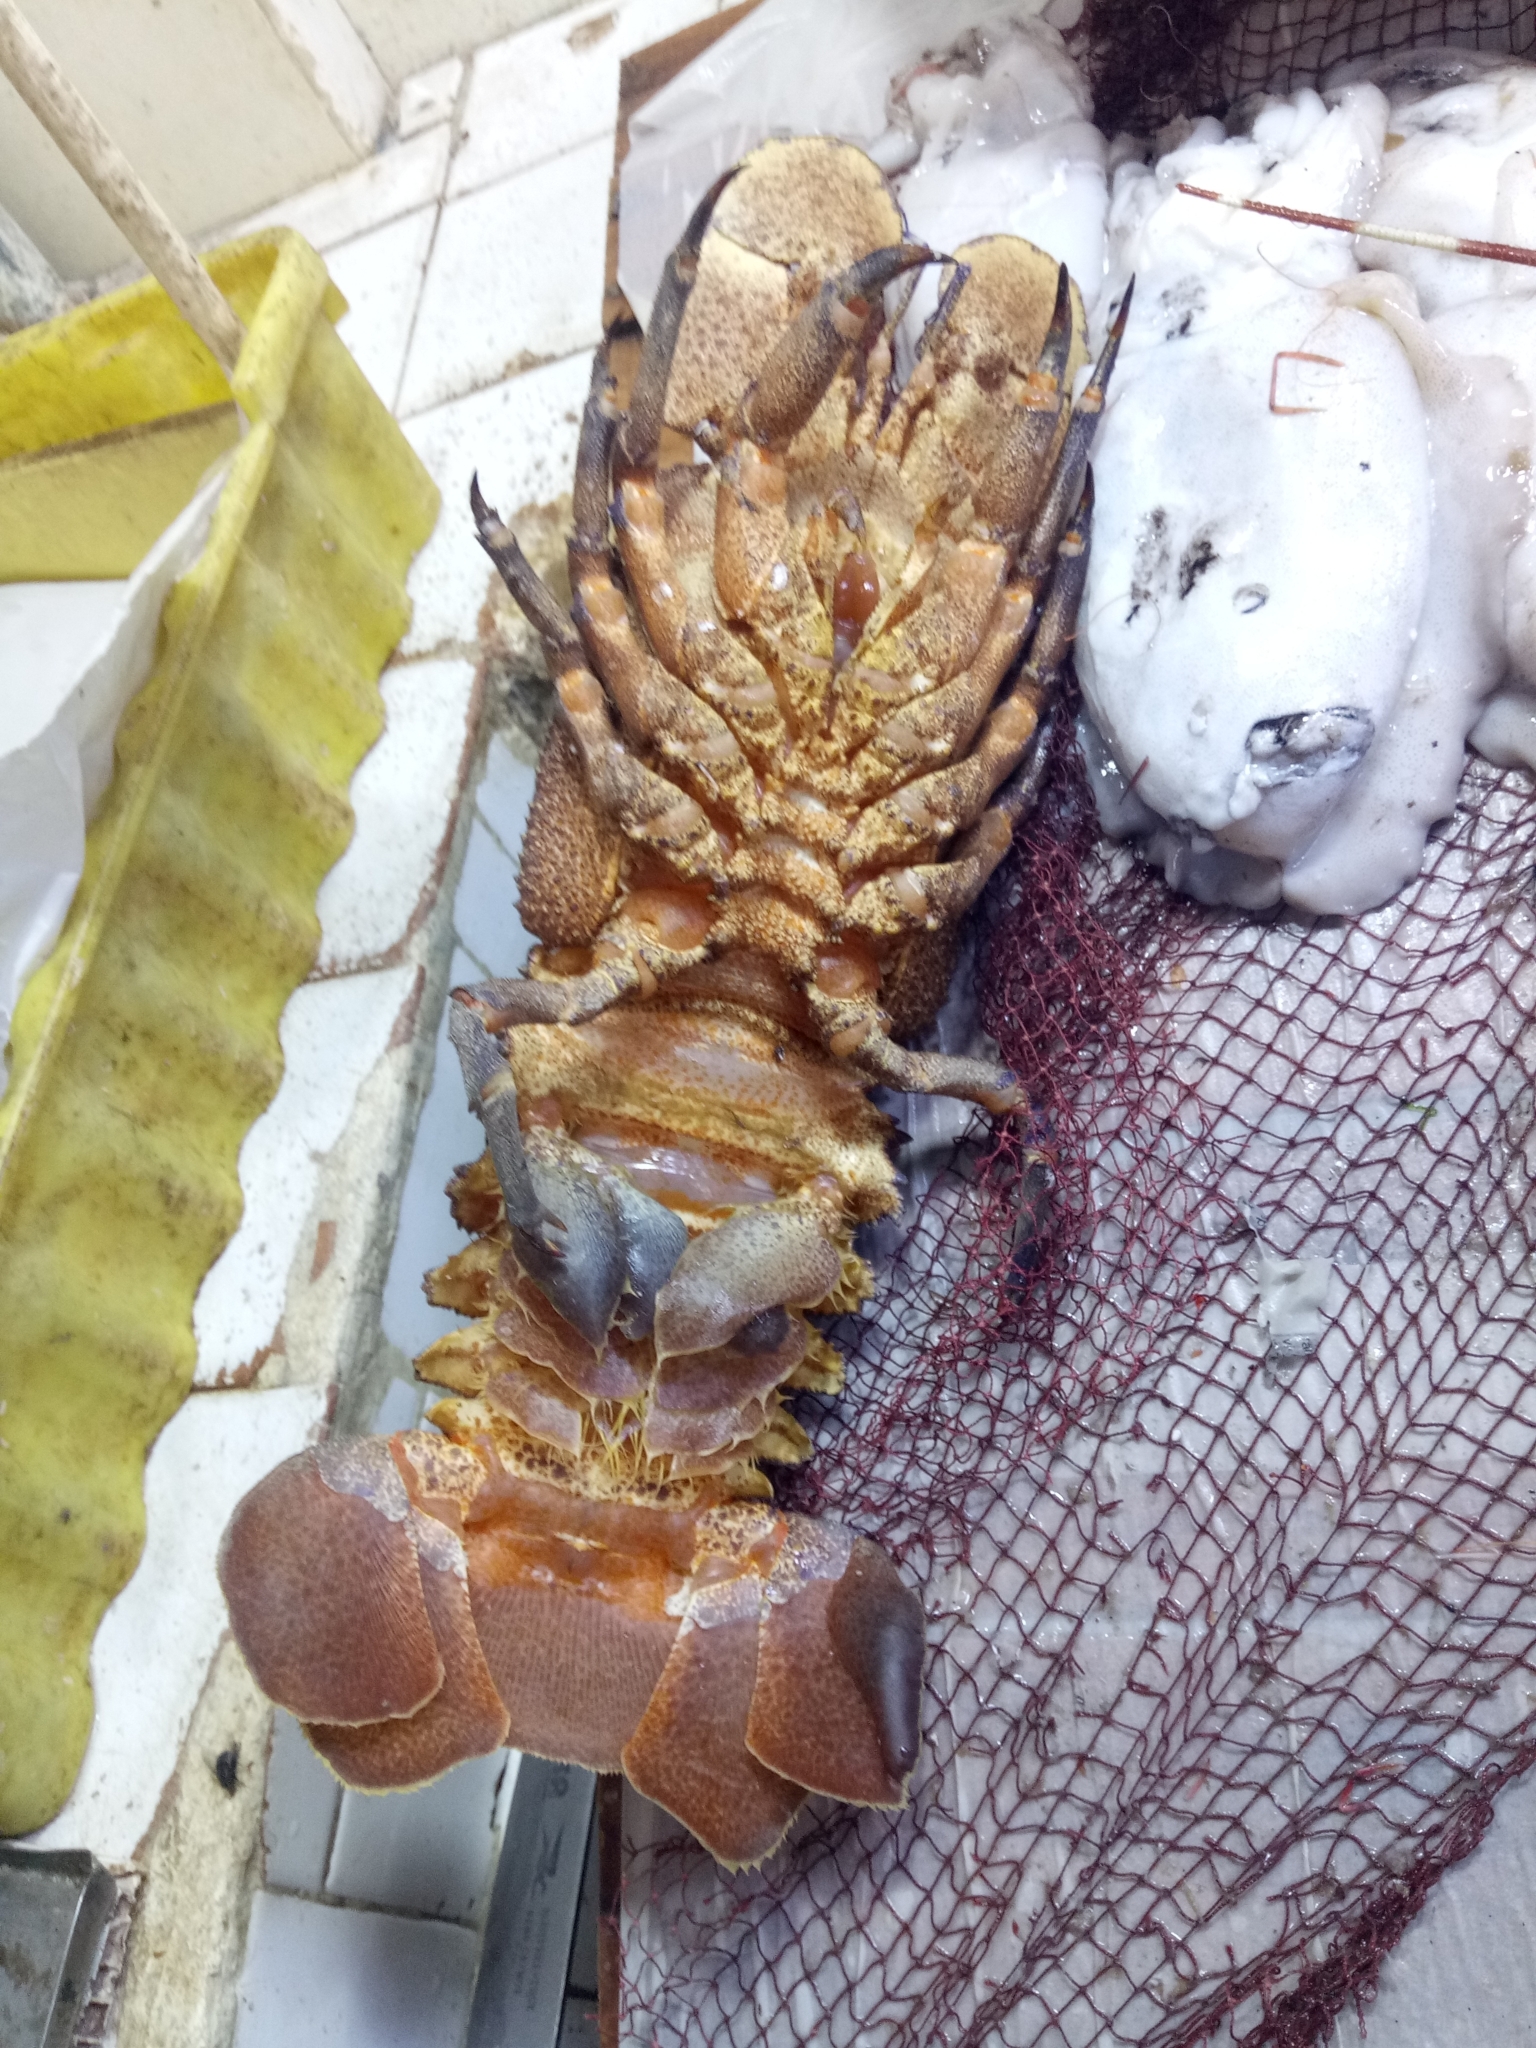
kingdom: Animalia
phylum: Arthropoda
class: Malacostraca
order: Decapoda
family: Scyllaridae
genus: Scyllarides
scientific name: Scyllarides latus
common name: Mediterranean slipper lobster
